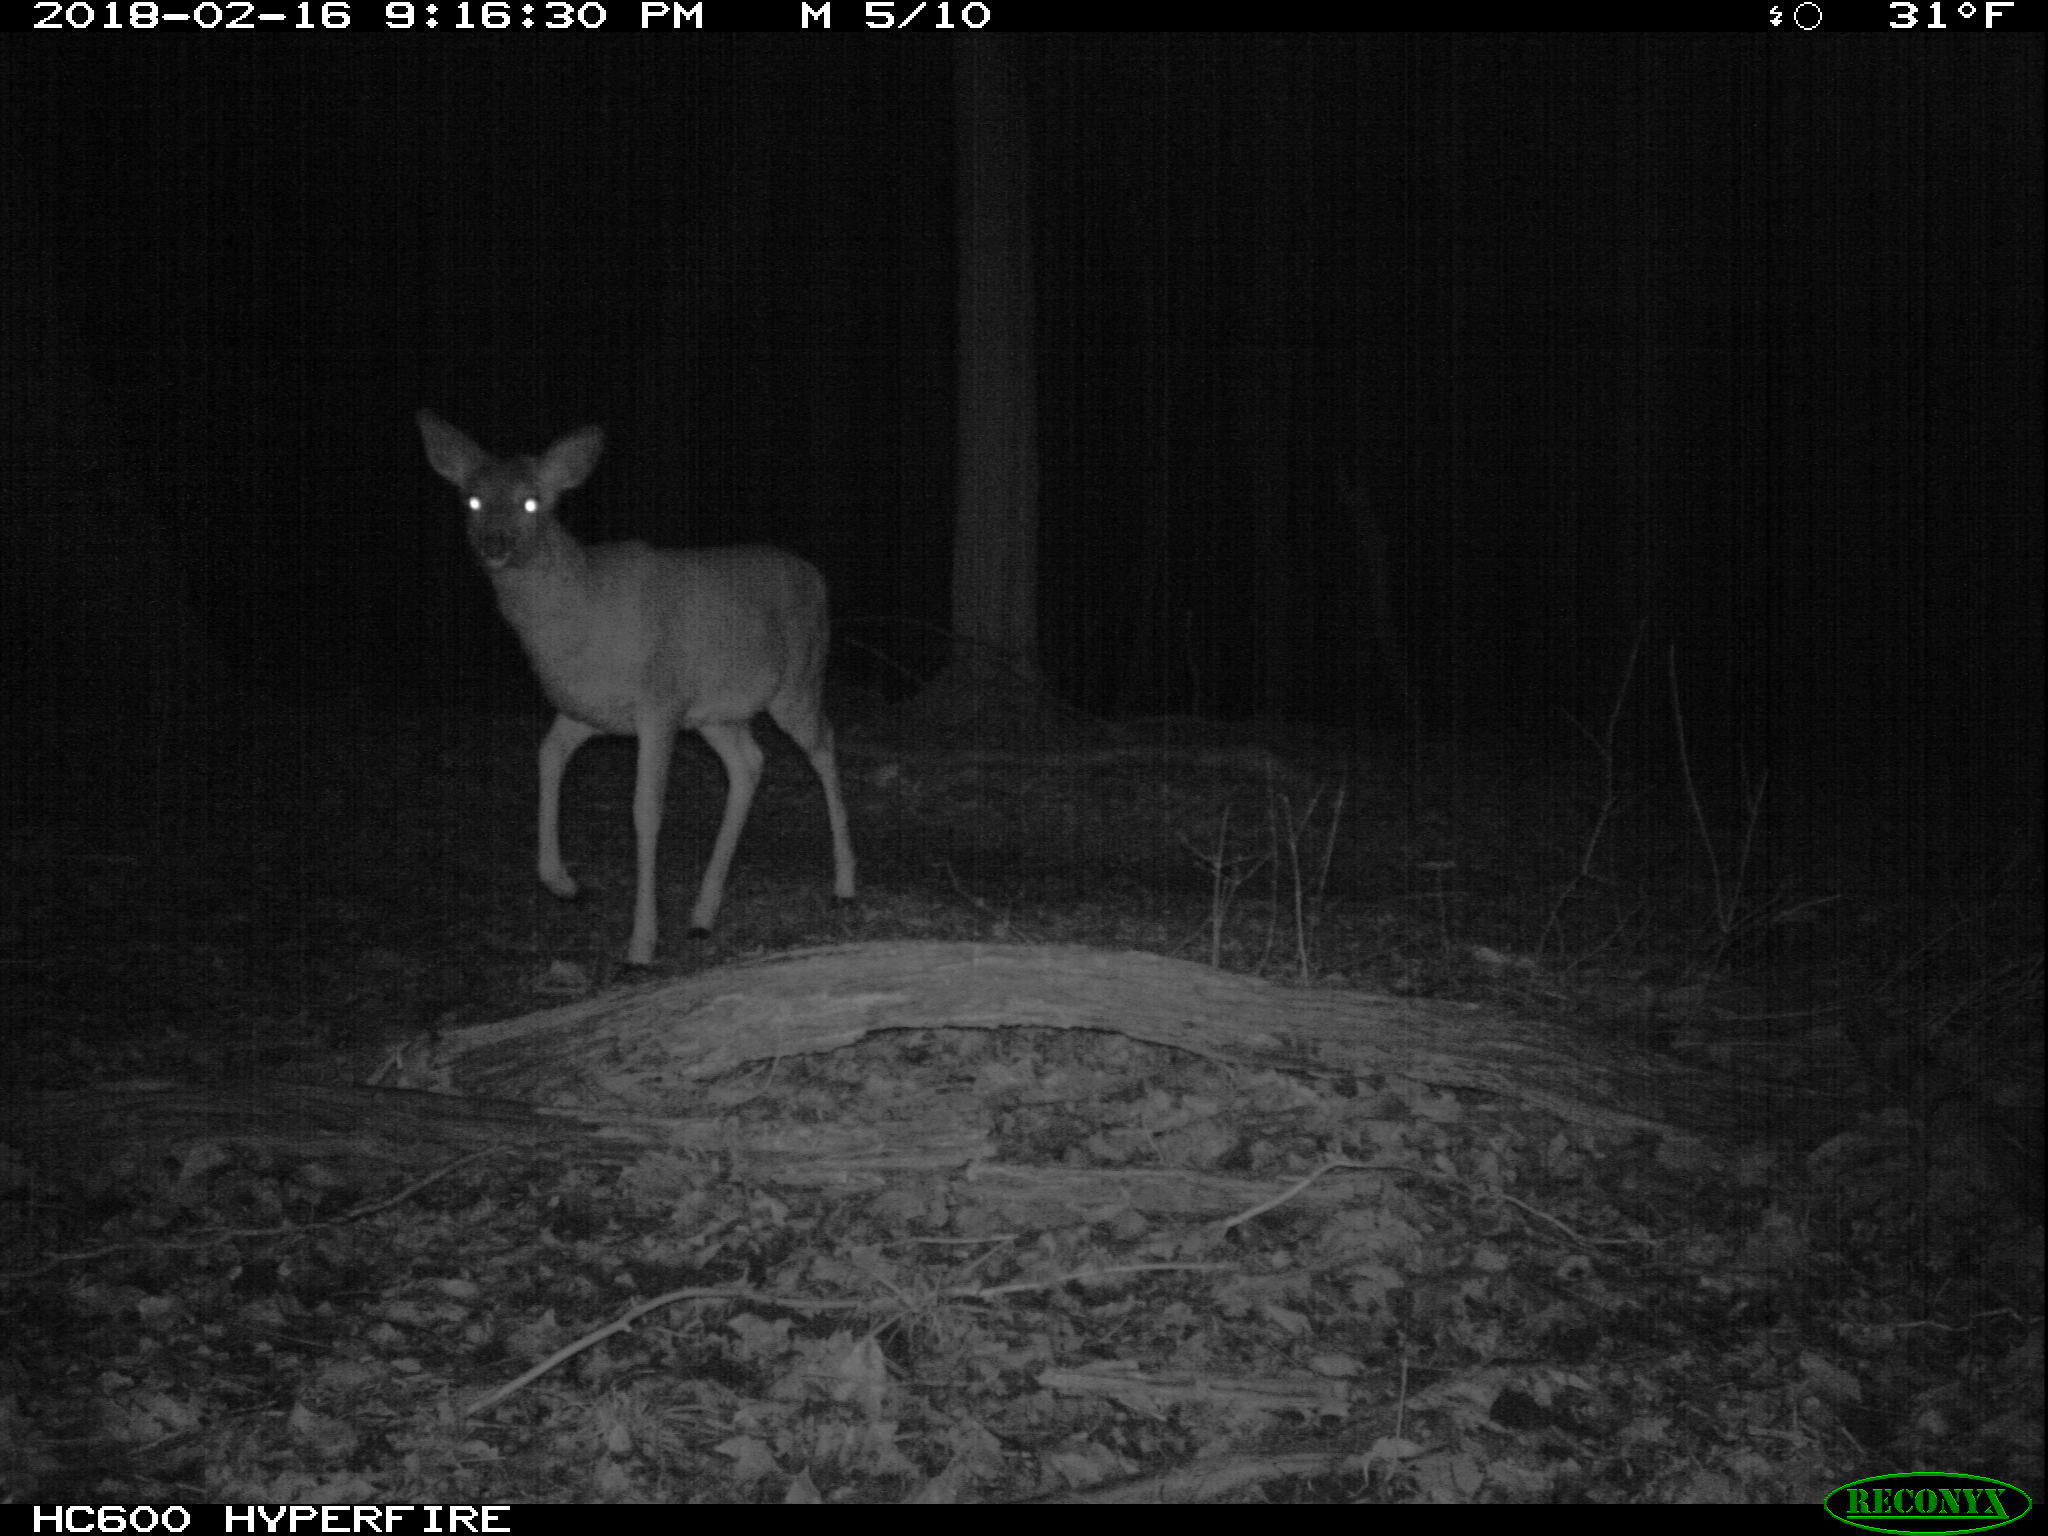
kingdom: Animalia
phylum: Chordata
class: Mammalia
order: Artiodactyla
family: Cervidae
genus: Odocoileus
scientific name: Odocoileus virginianus
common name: White-tailed deer
